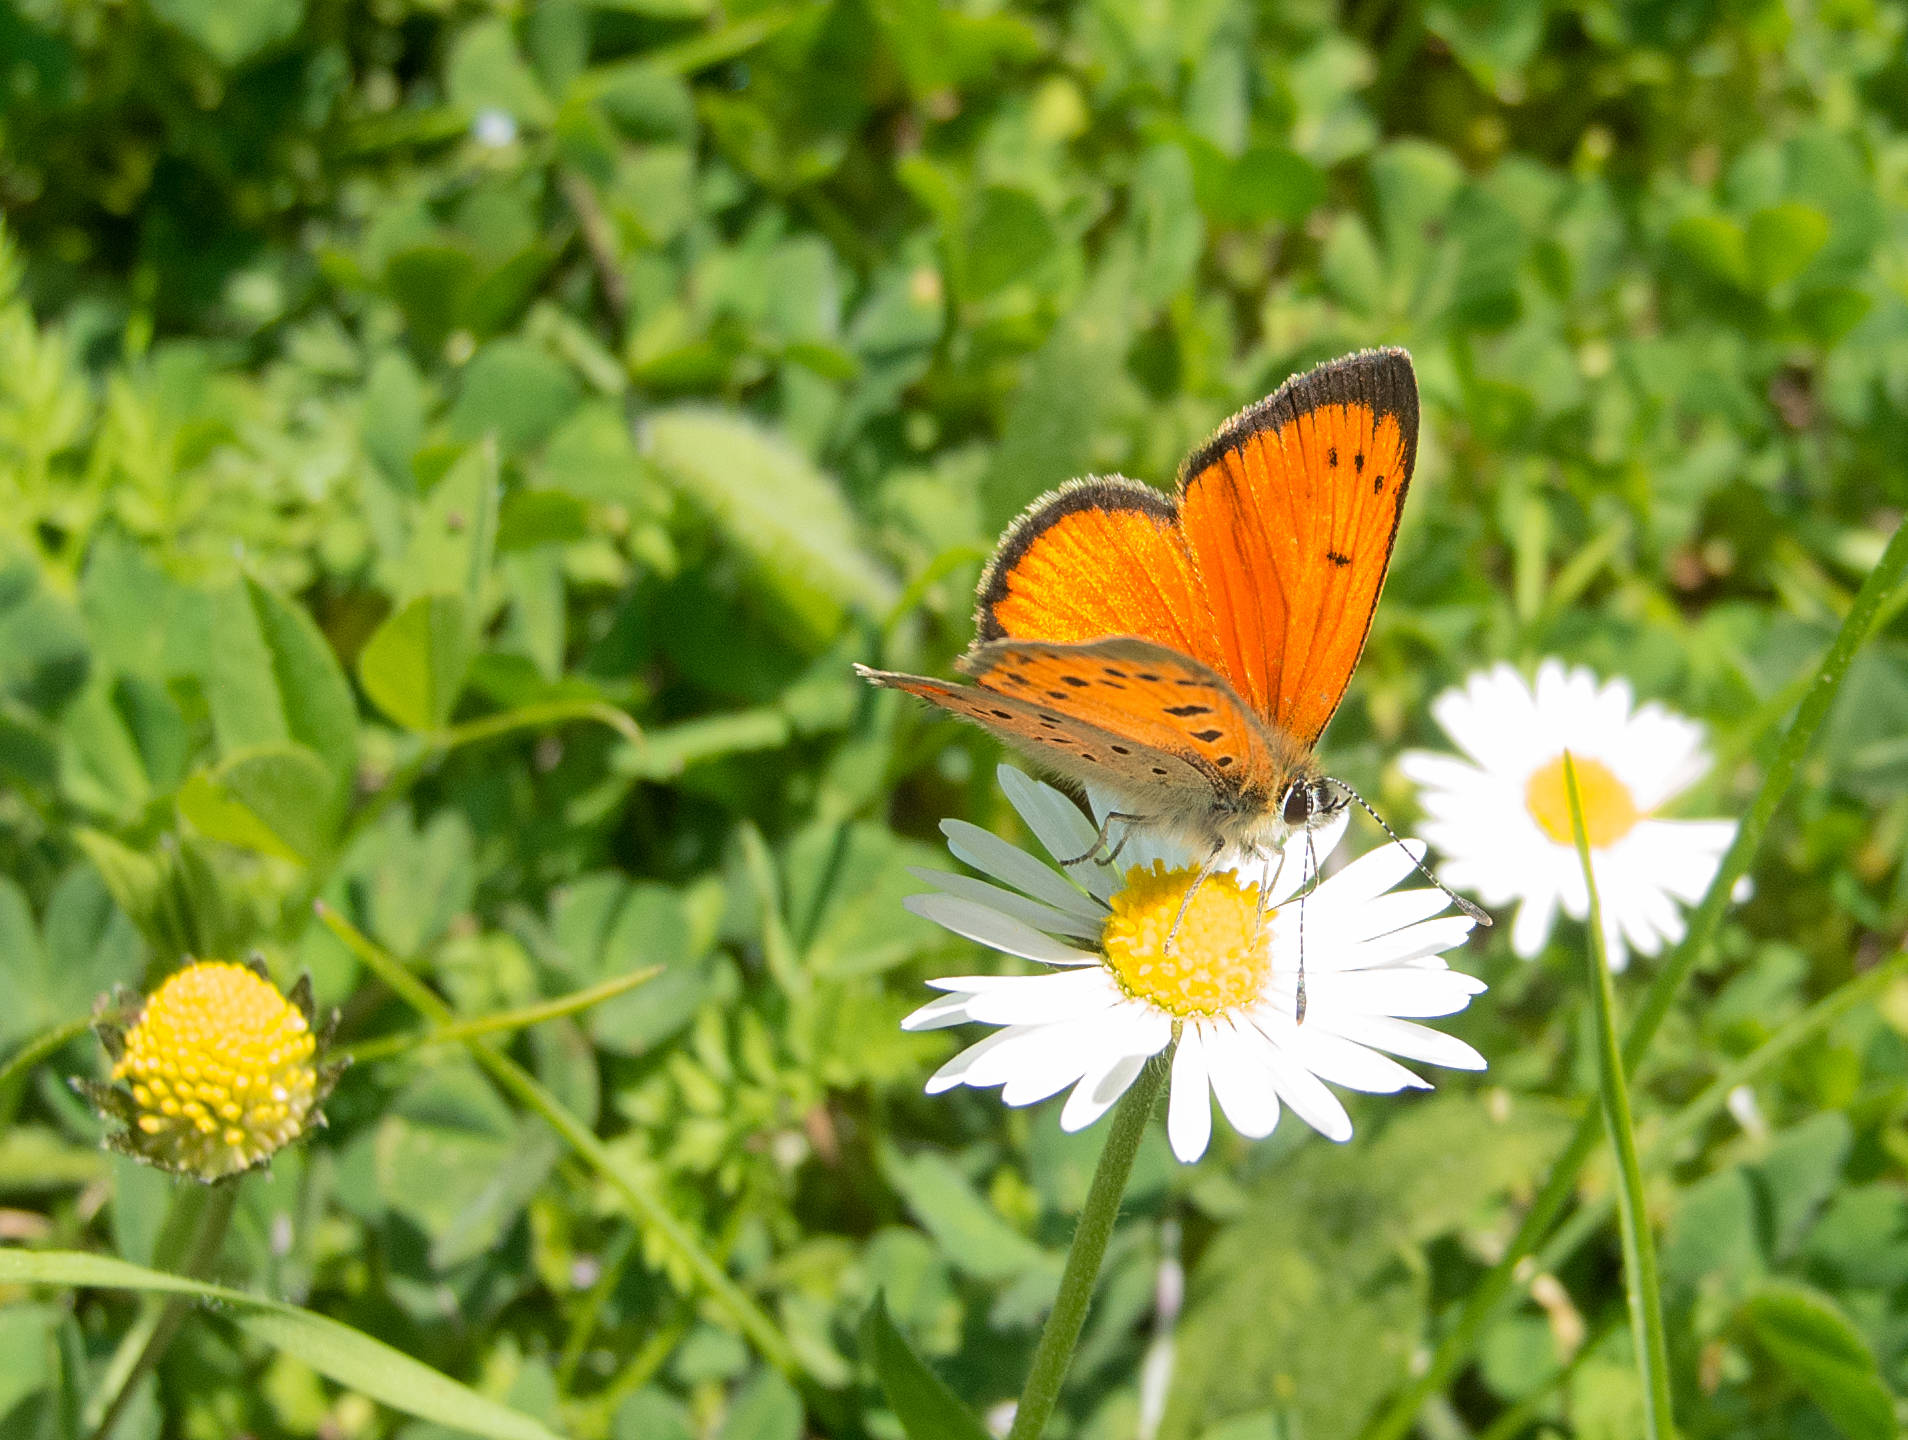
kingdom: Animalia
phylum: Arthropoda
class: Insecta
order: Lepidoptera
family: Lycaenidae
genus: Polyommatus
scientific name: Polyommatus ottomanus
